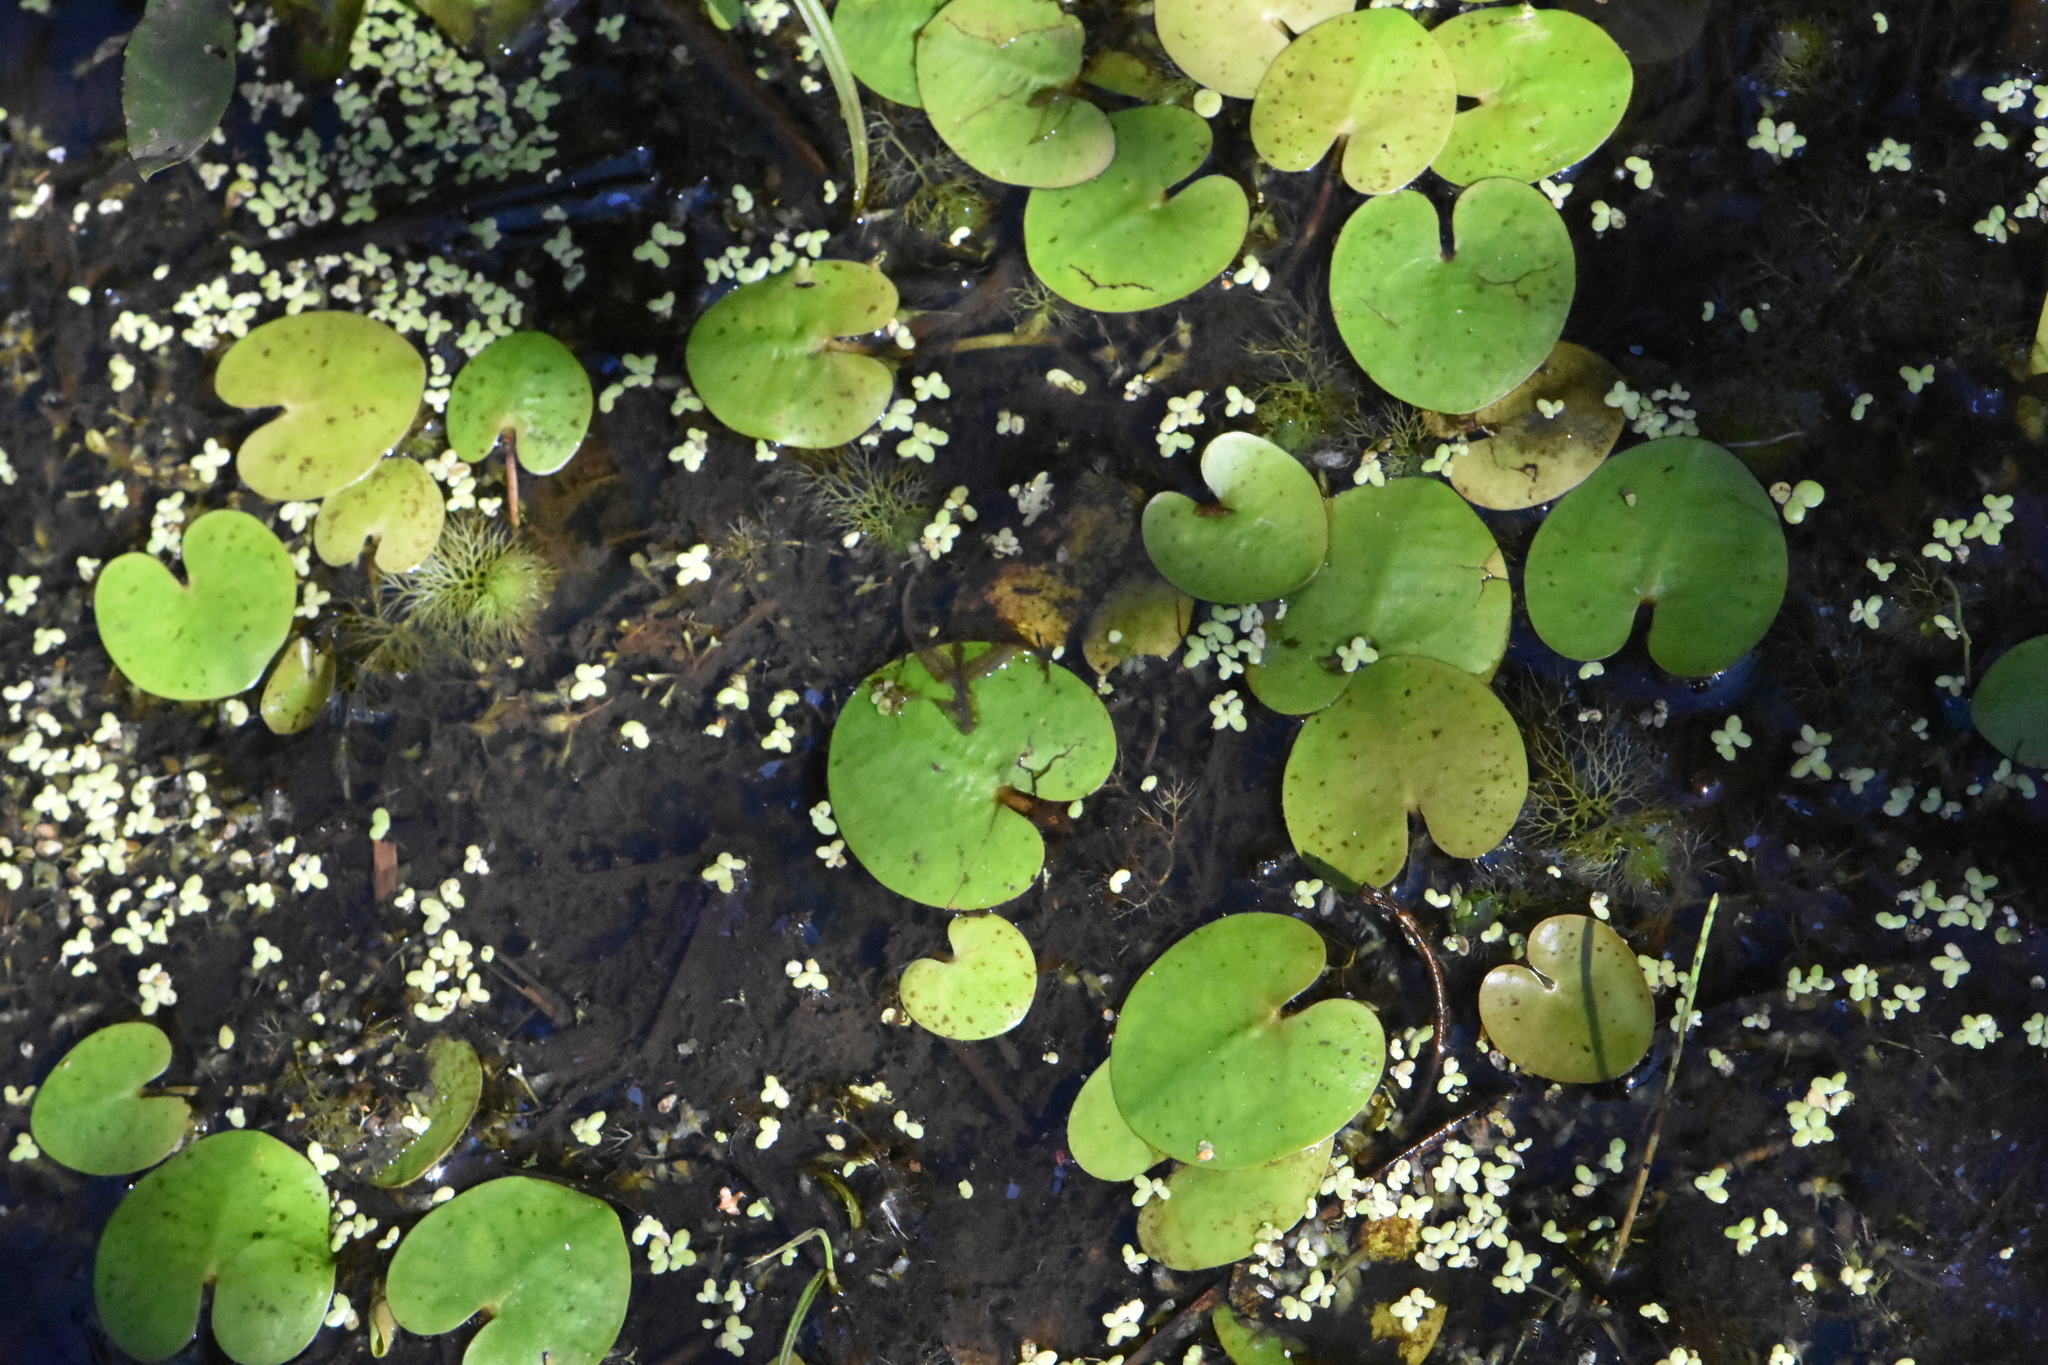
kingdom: Plantae
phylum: Tracheophyta
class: Liliopsida
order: Alismatales
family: Hydrocharitaceae
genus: Hydrocharis
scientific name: Hydrocharis morsus-ranae
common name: Frogbit
